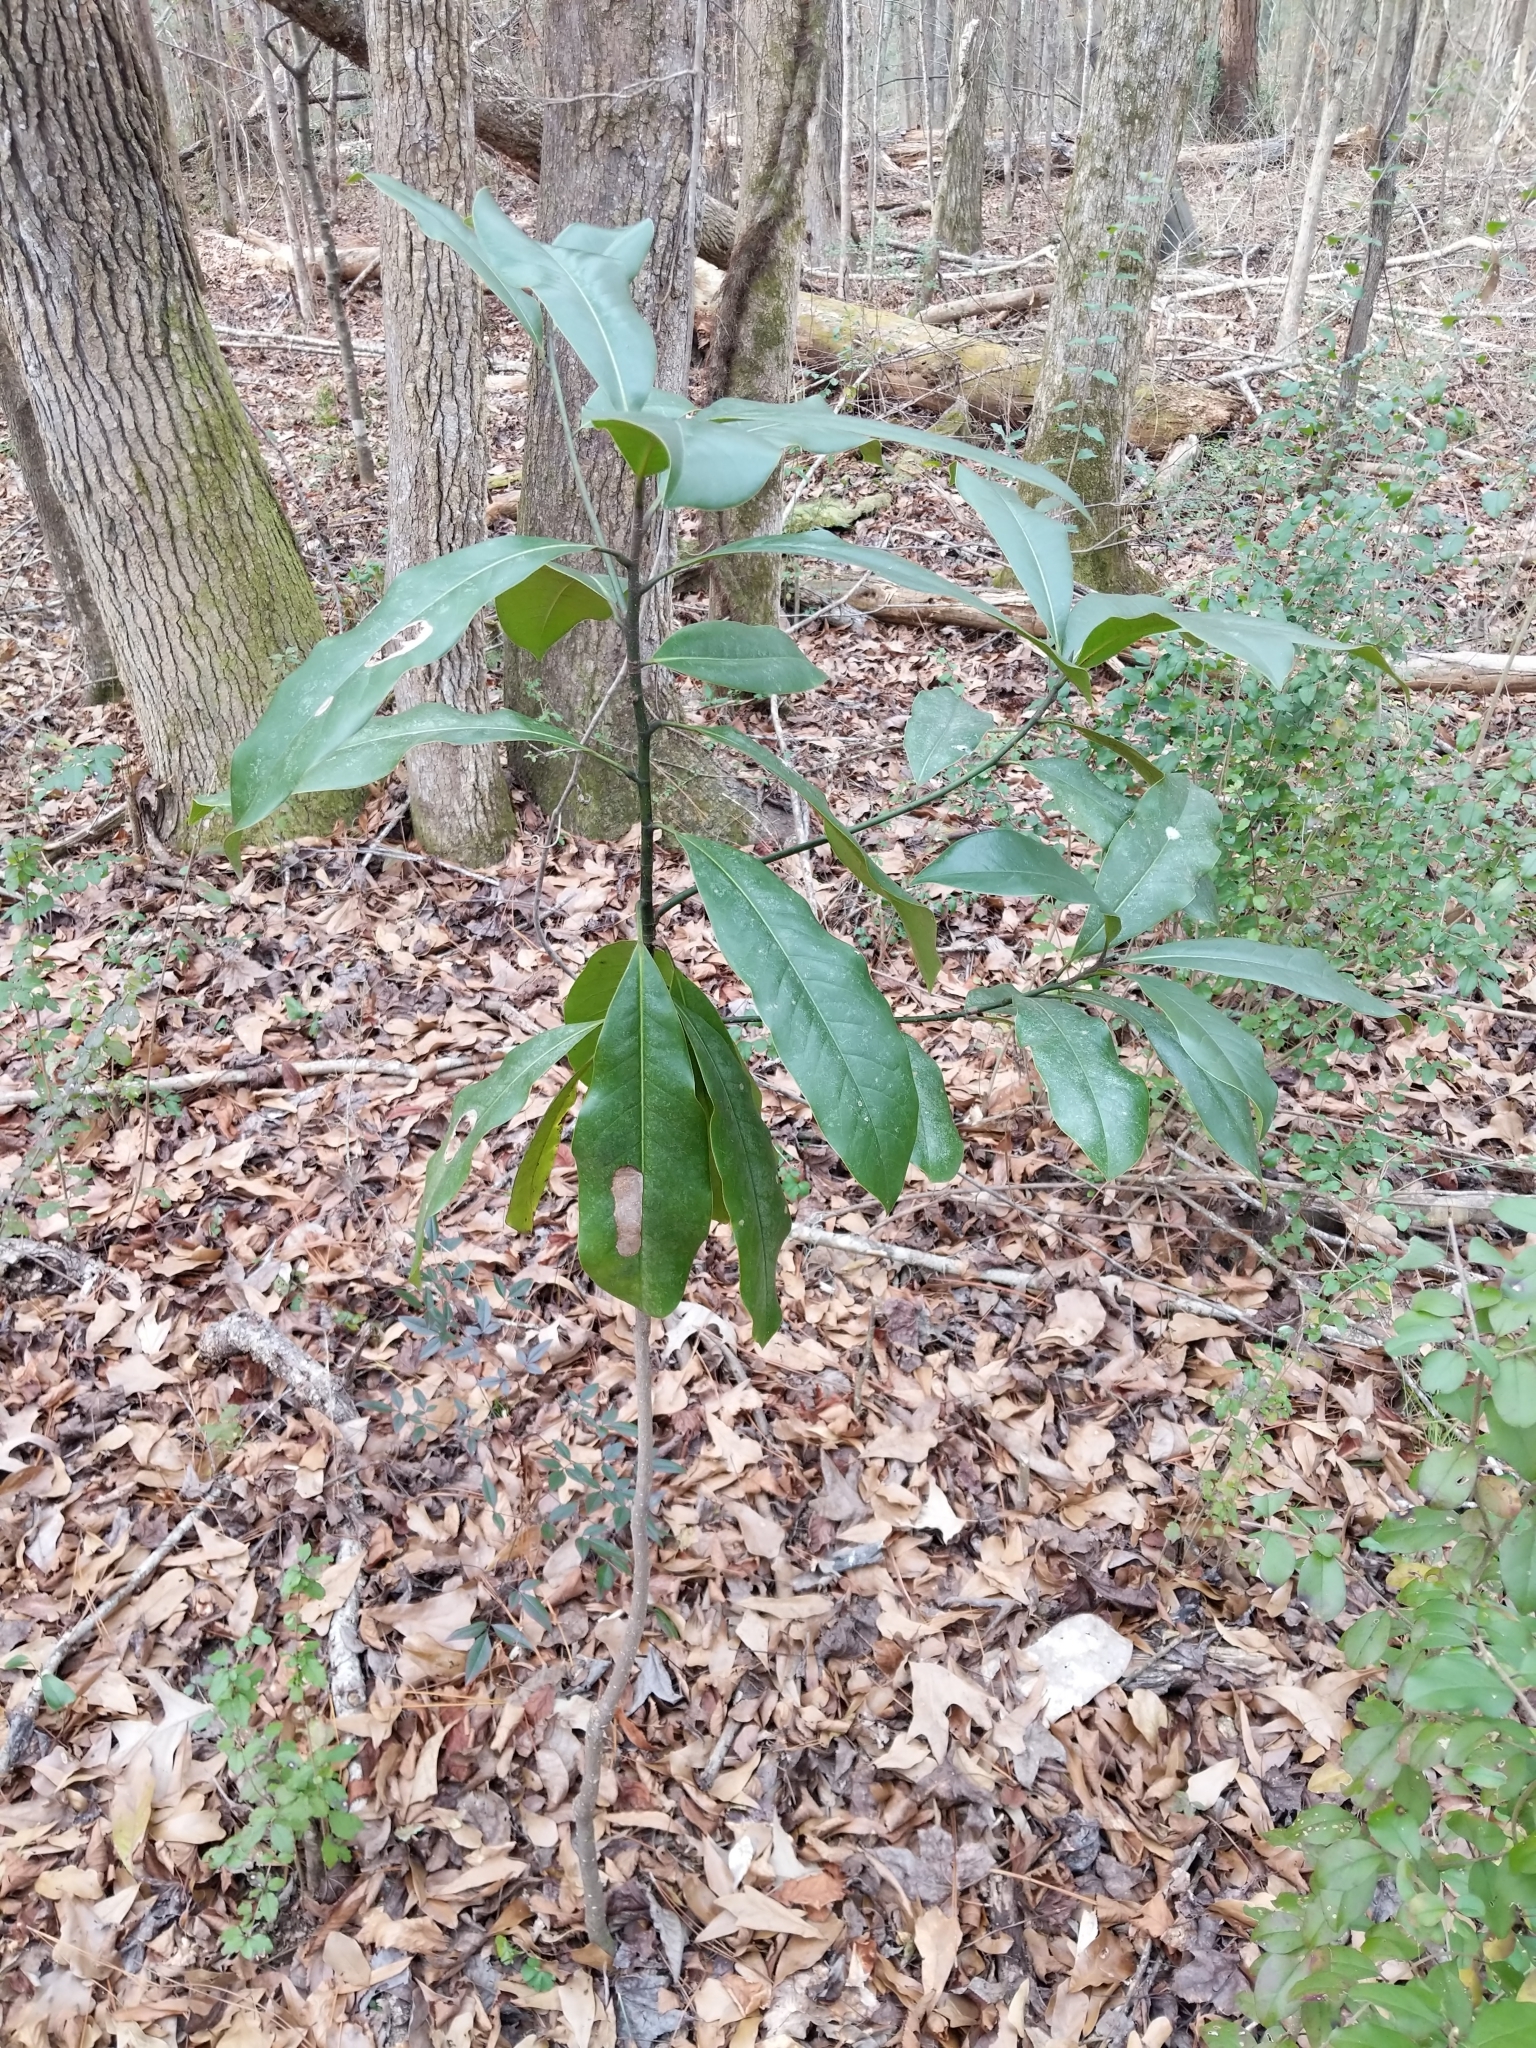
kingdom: Plantae
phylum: Tracheophyta
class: Magnoliopsida
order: Magnoliales
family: Magnoliaceae
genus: Magnolia
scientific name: Magnolia grandiflora
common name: Southern magnolia
